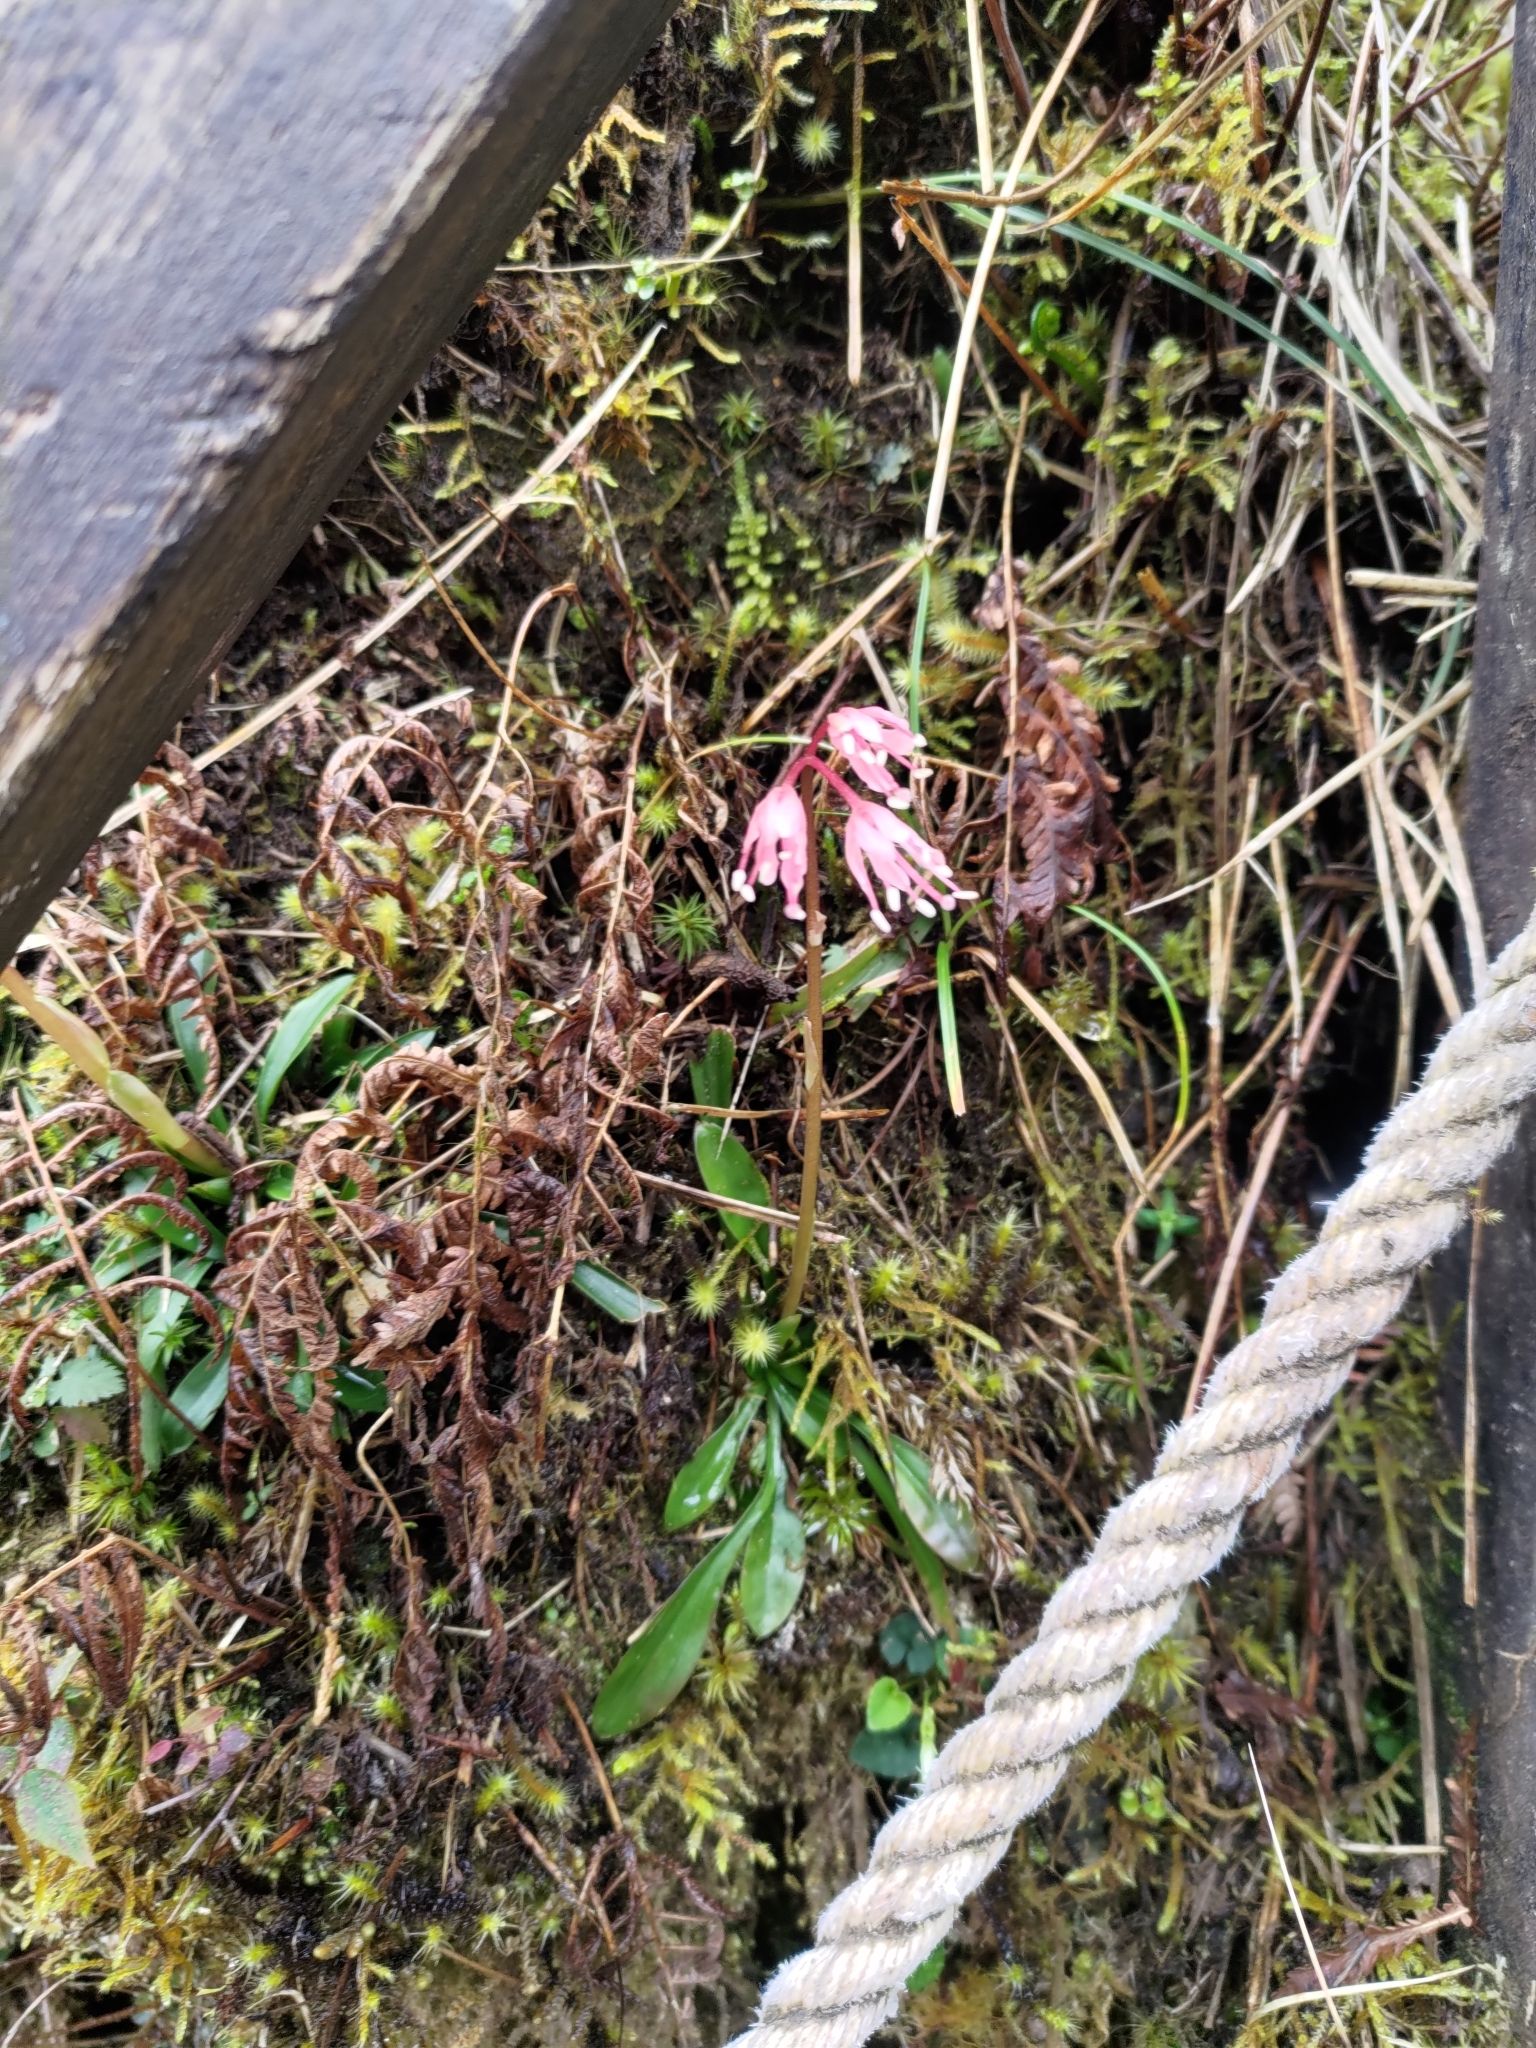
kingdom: Plantae
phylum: Tracheophyta
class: Liliopsida
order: Liliales
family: Melanthiaceae
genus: Helonias
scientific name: Helonias umbellata
